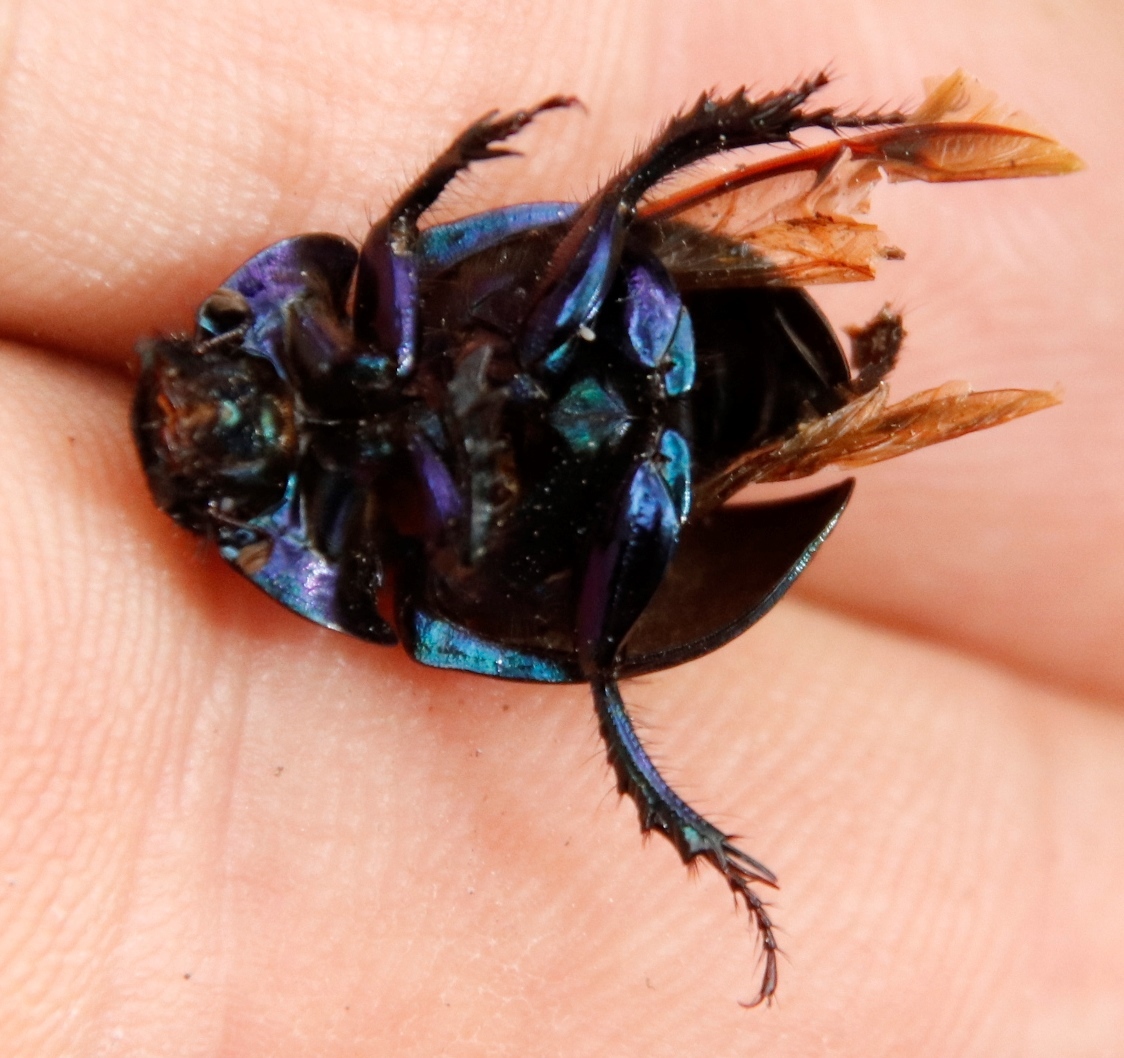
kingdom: Animalia
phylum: Arthropoda
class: Insecta
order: Coleoptera
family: Geotrupidae
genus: Anoplotrupes
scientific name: Anoplotrupes stercorosus
